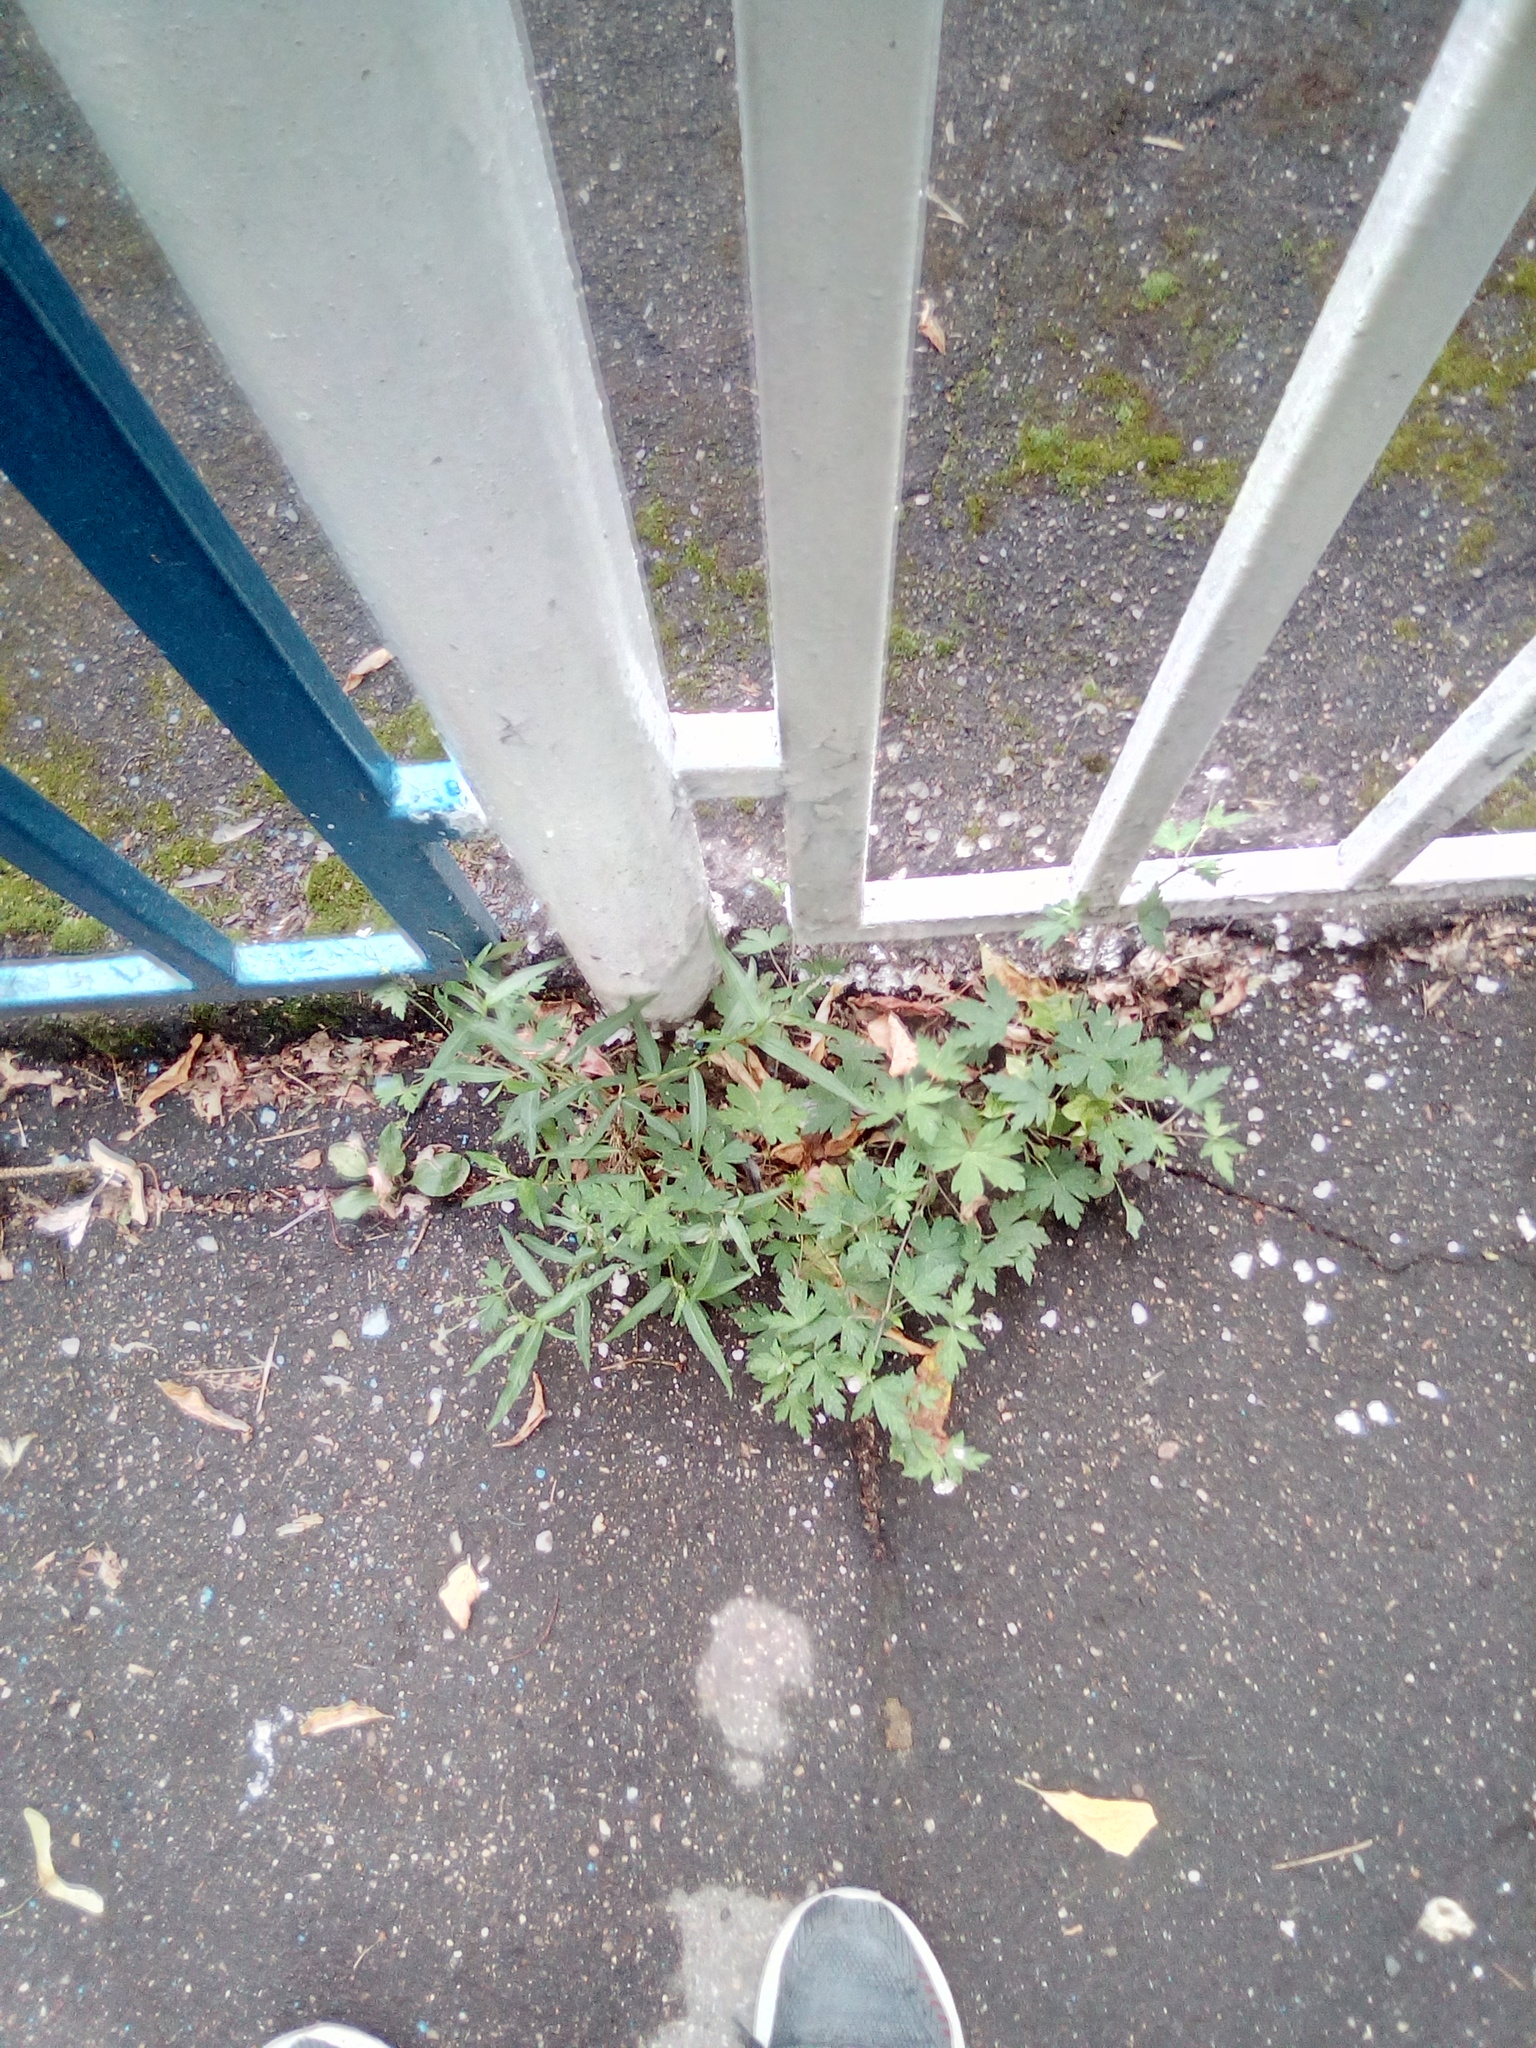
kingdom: Plantae
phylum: Tracheophyta
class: Magnoliopsida
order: Geraniales
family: Geraniaceae
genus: Geranium
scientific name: Geranium sibiricum
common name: Siberian crane's-bill
